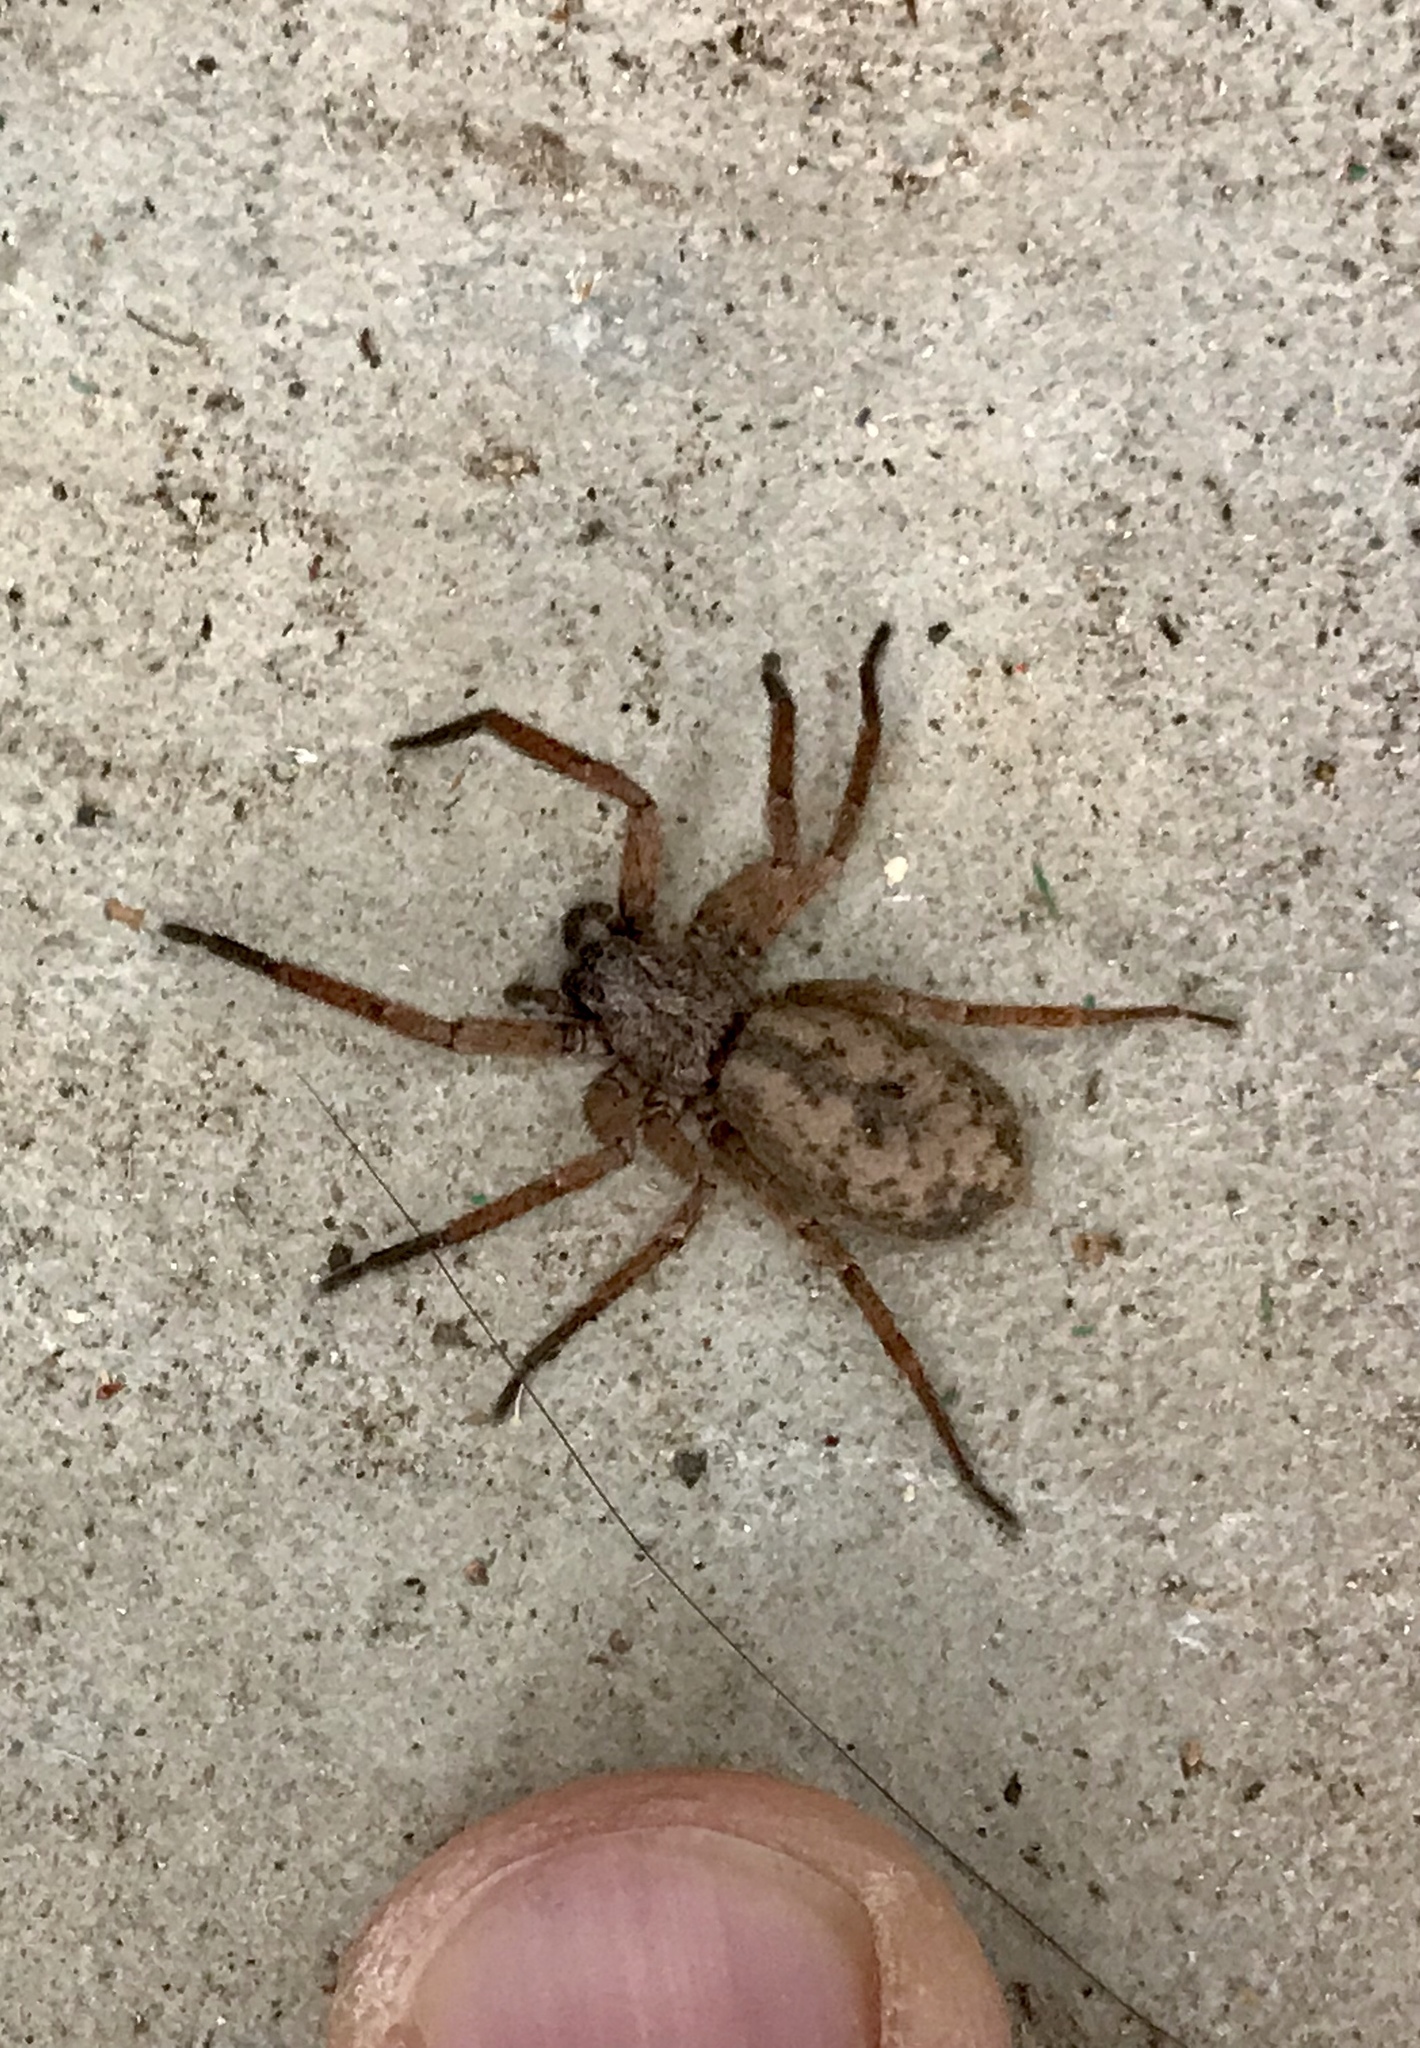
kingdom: Animalia
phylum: Arthropoda
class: Arachnida
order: Araneae
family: Zoropsidae
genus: Lauricius
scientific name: Lauricius hooki
